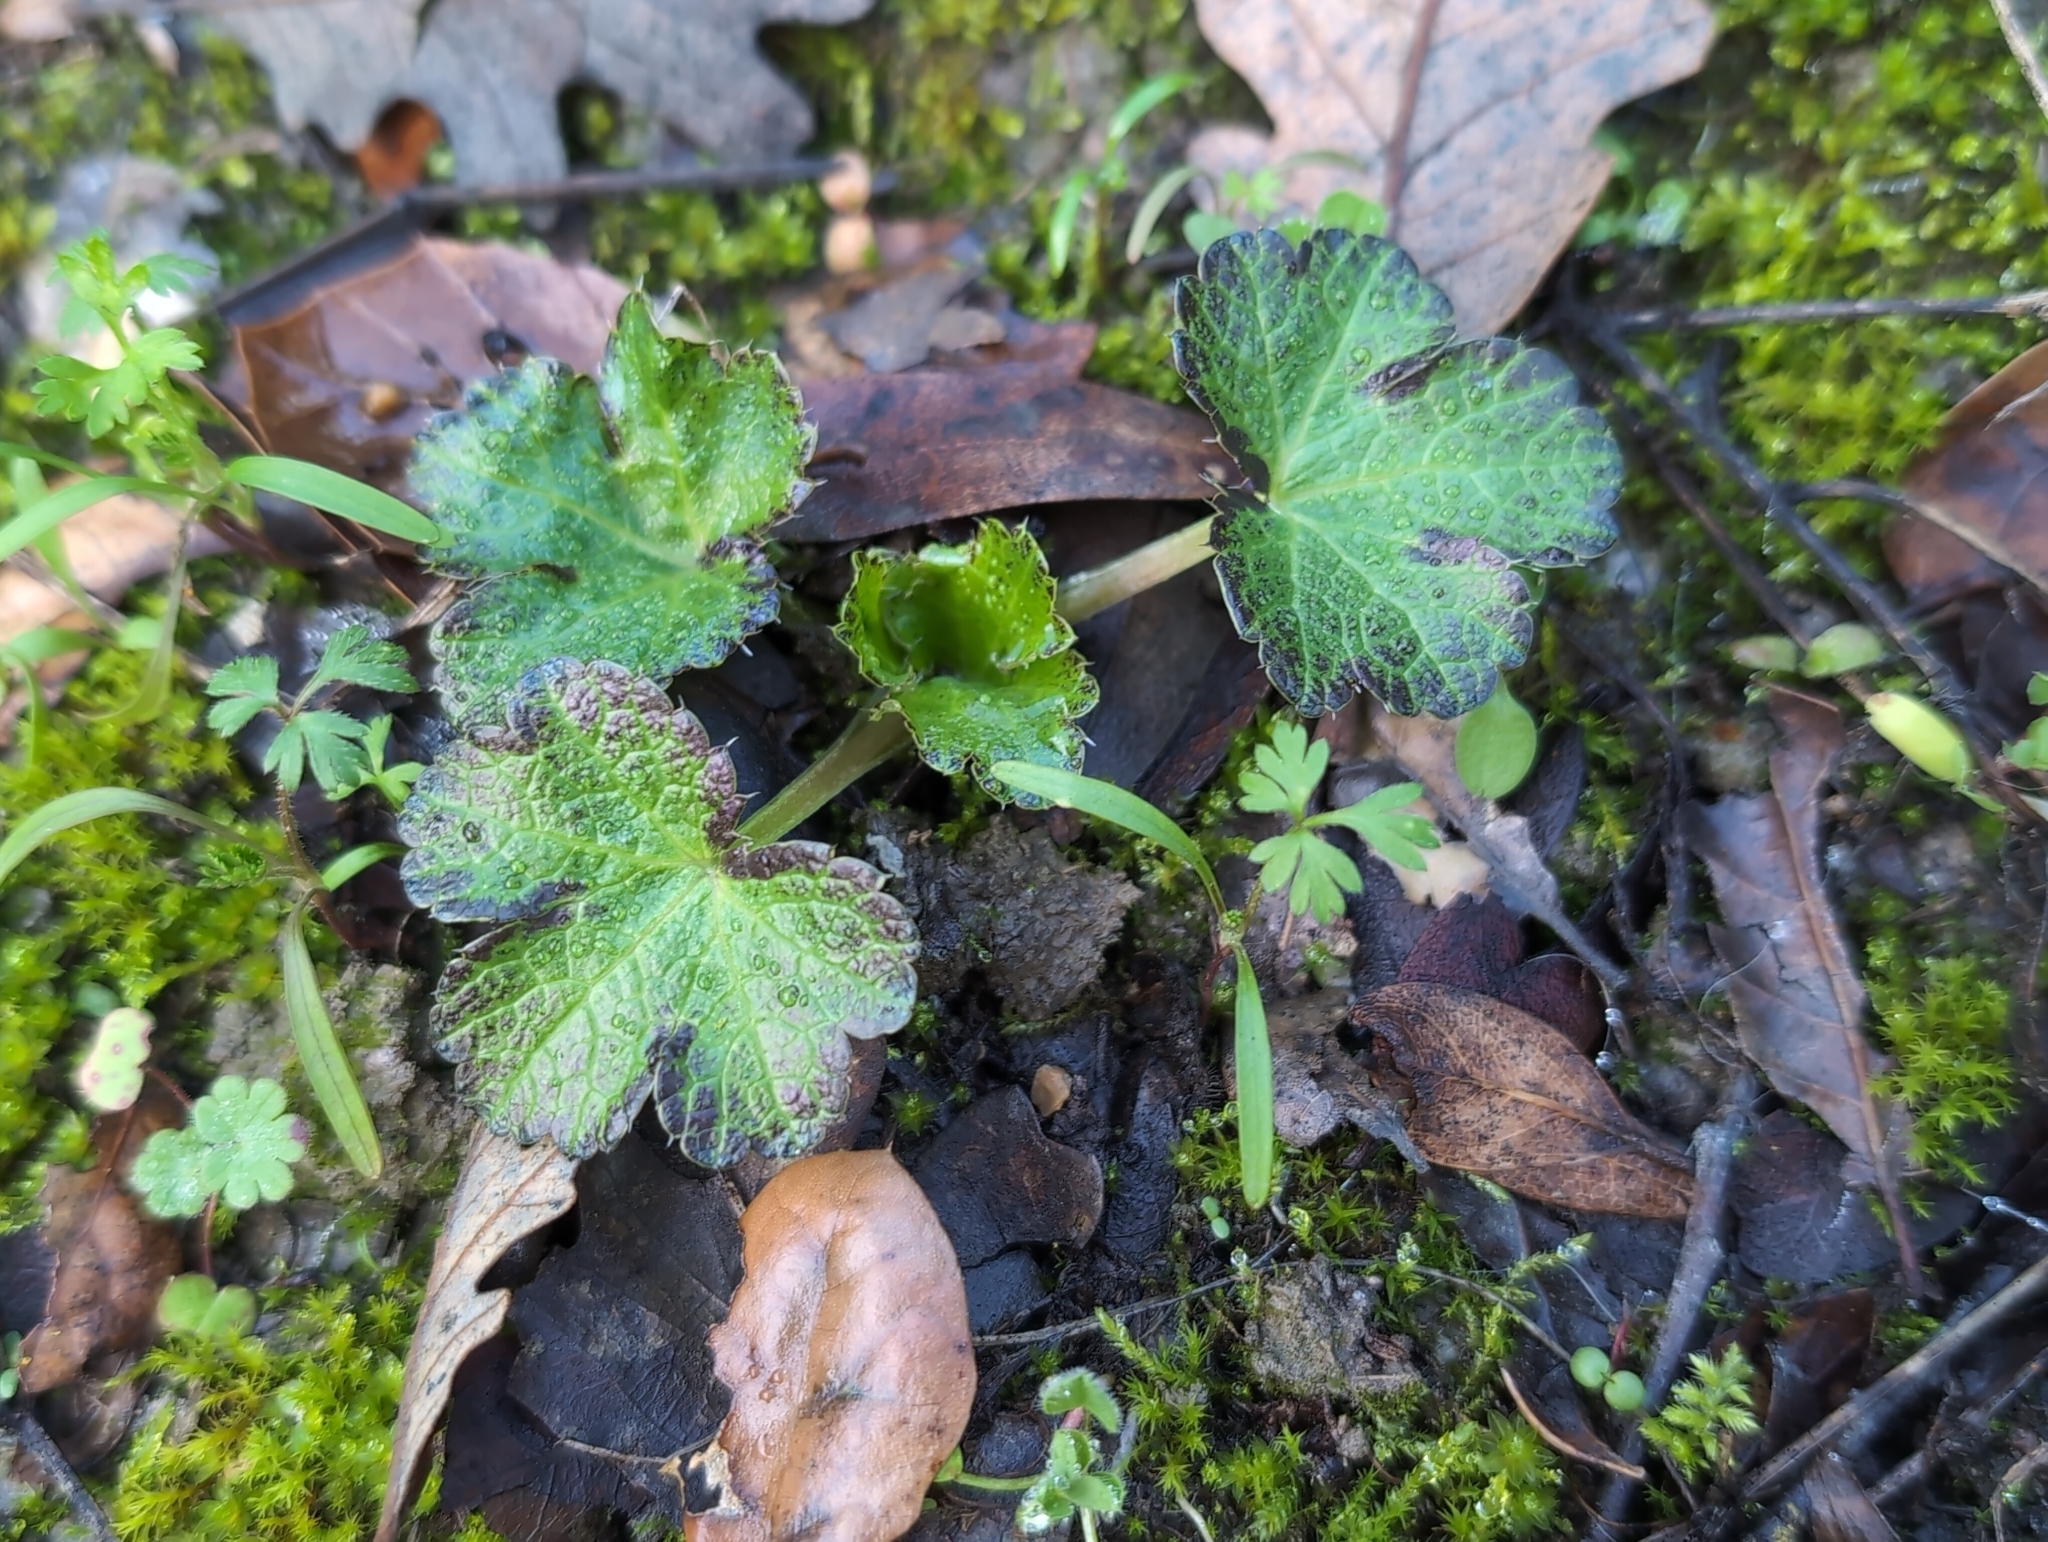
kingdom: Plantae
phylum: Tracheophyta
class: Magnoliopsida
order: Apiales
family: Apiaceae
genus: Sanicula
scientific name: Sanicula crassicaulis
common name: Western snakeroot
